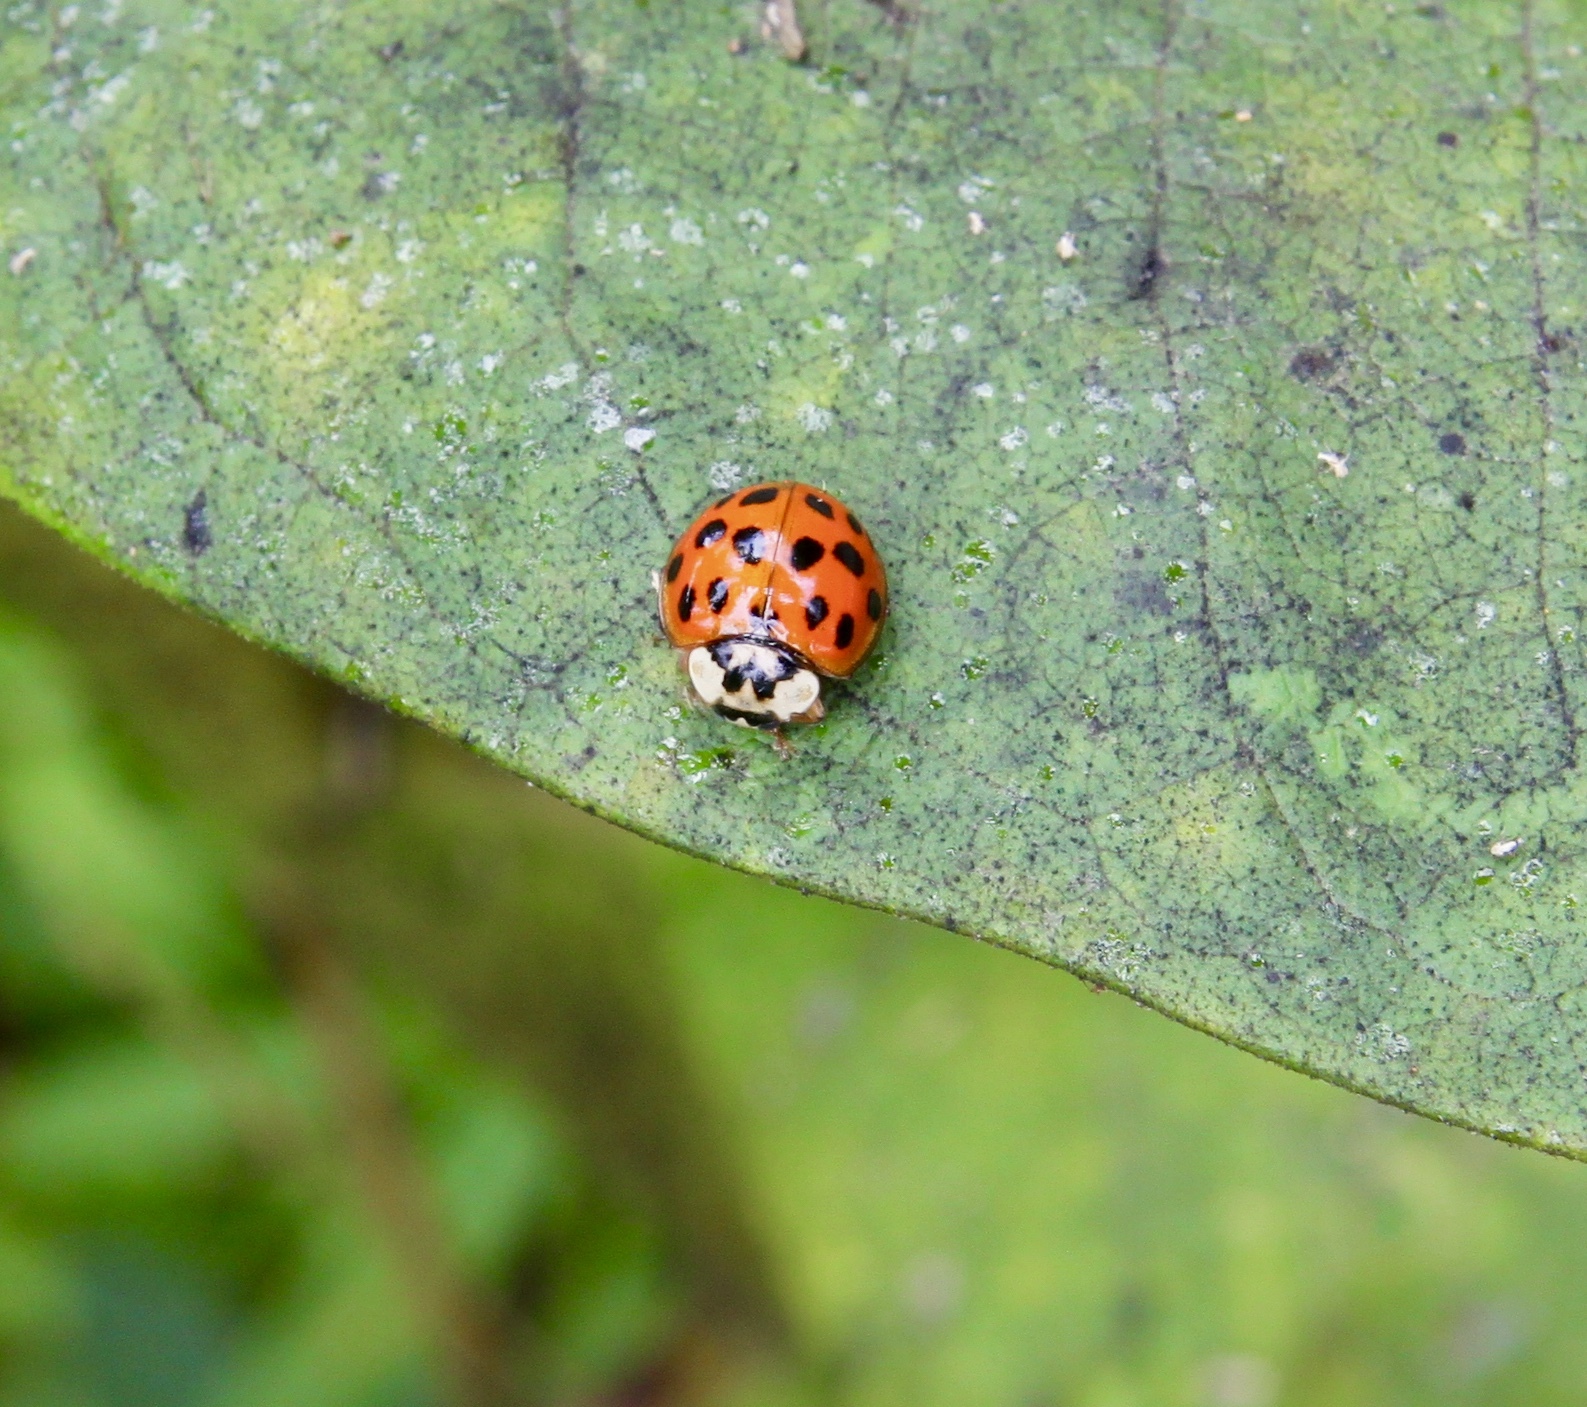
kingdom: Animalia
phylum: Arthropoda
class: Insecta
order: Coleoptera
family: Coccinellidae
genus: Harmonia
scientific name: Harmonia axyridis
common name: Harlequin ladybird
